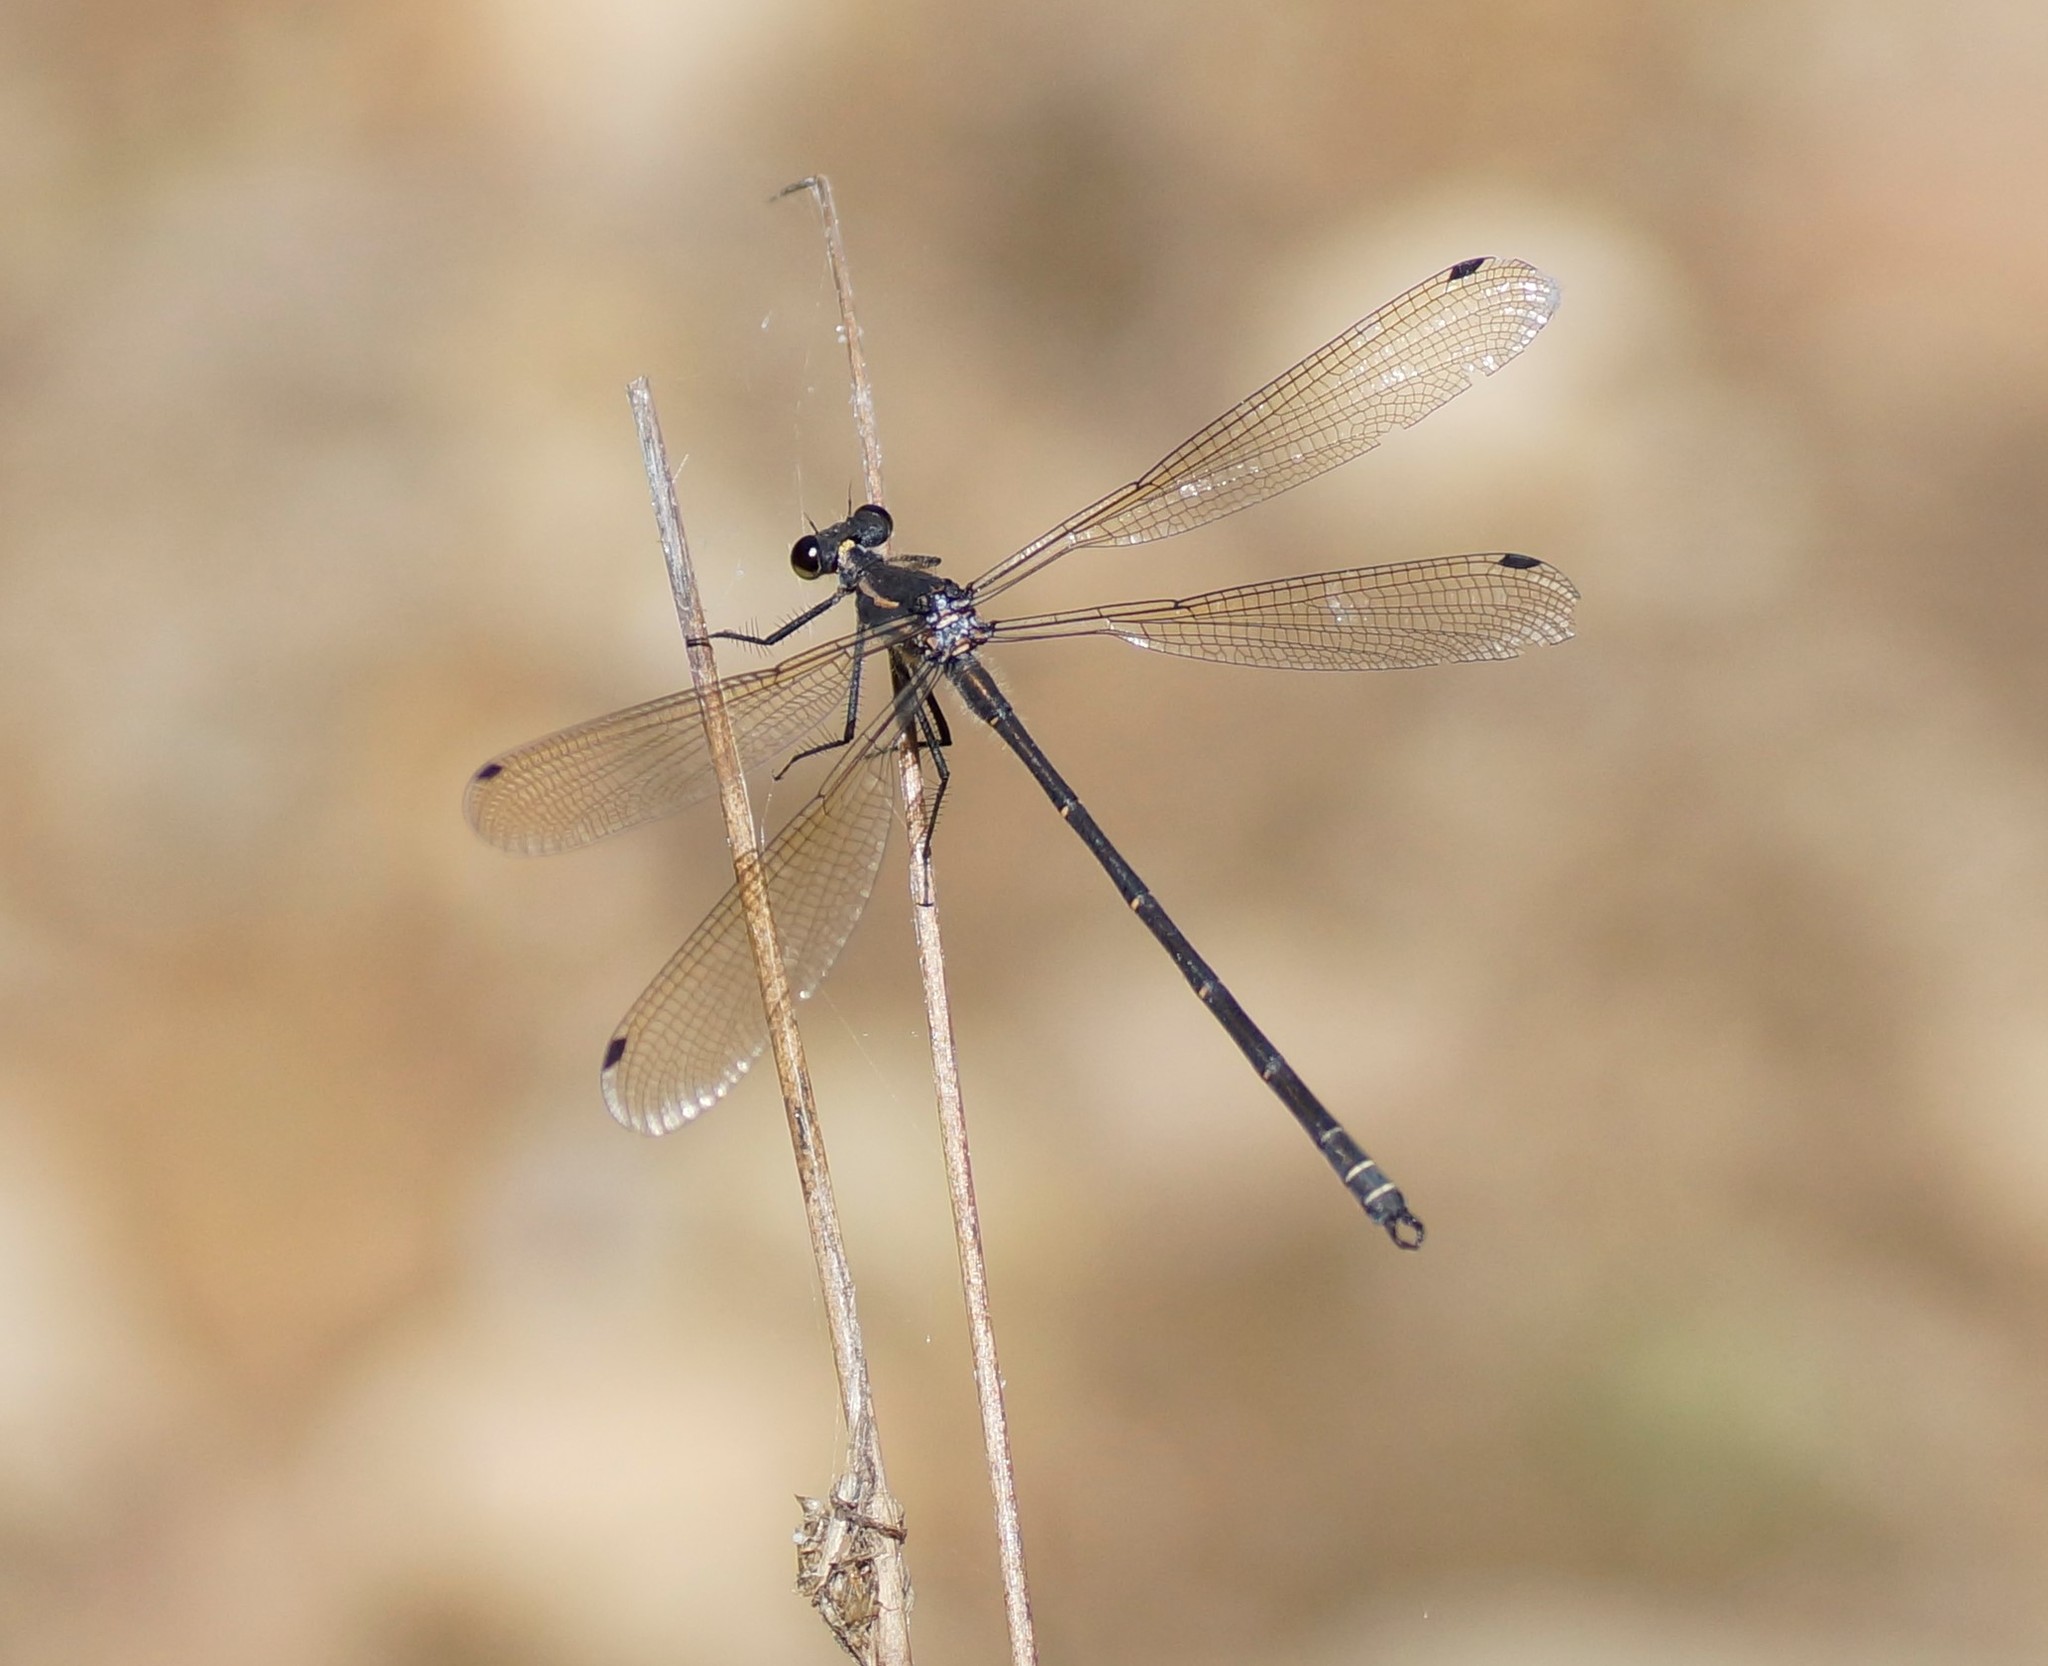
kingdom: Animalia
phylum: Arthropoda
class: Insecta
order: Odonata
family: Argiolestidae
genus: Austroargiolestes
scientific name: Austroargiolestes icteromelas
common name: Common flatwing
